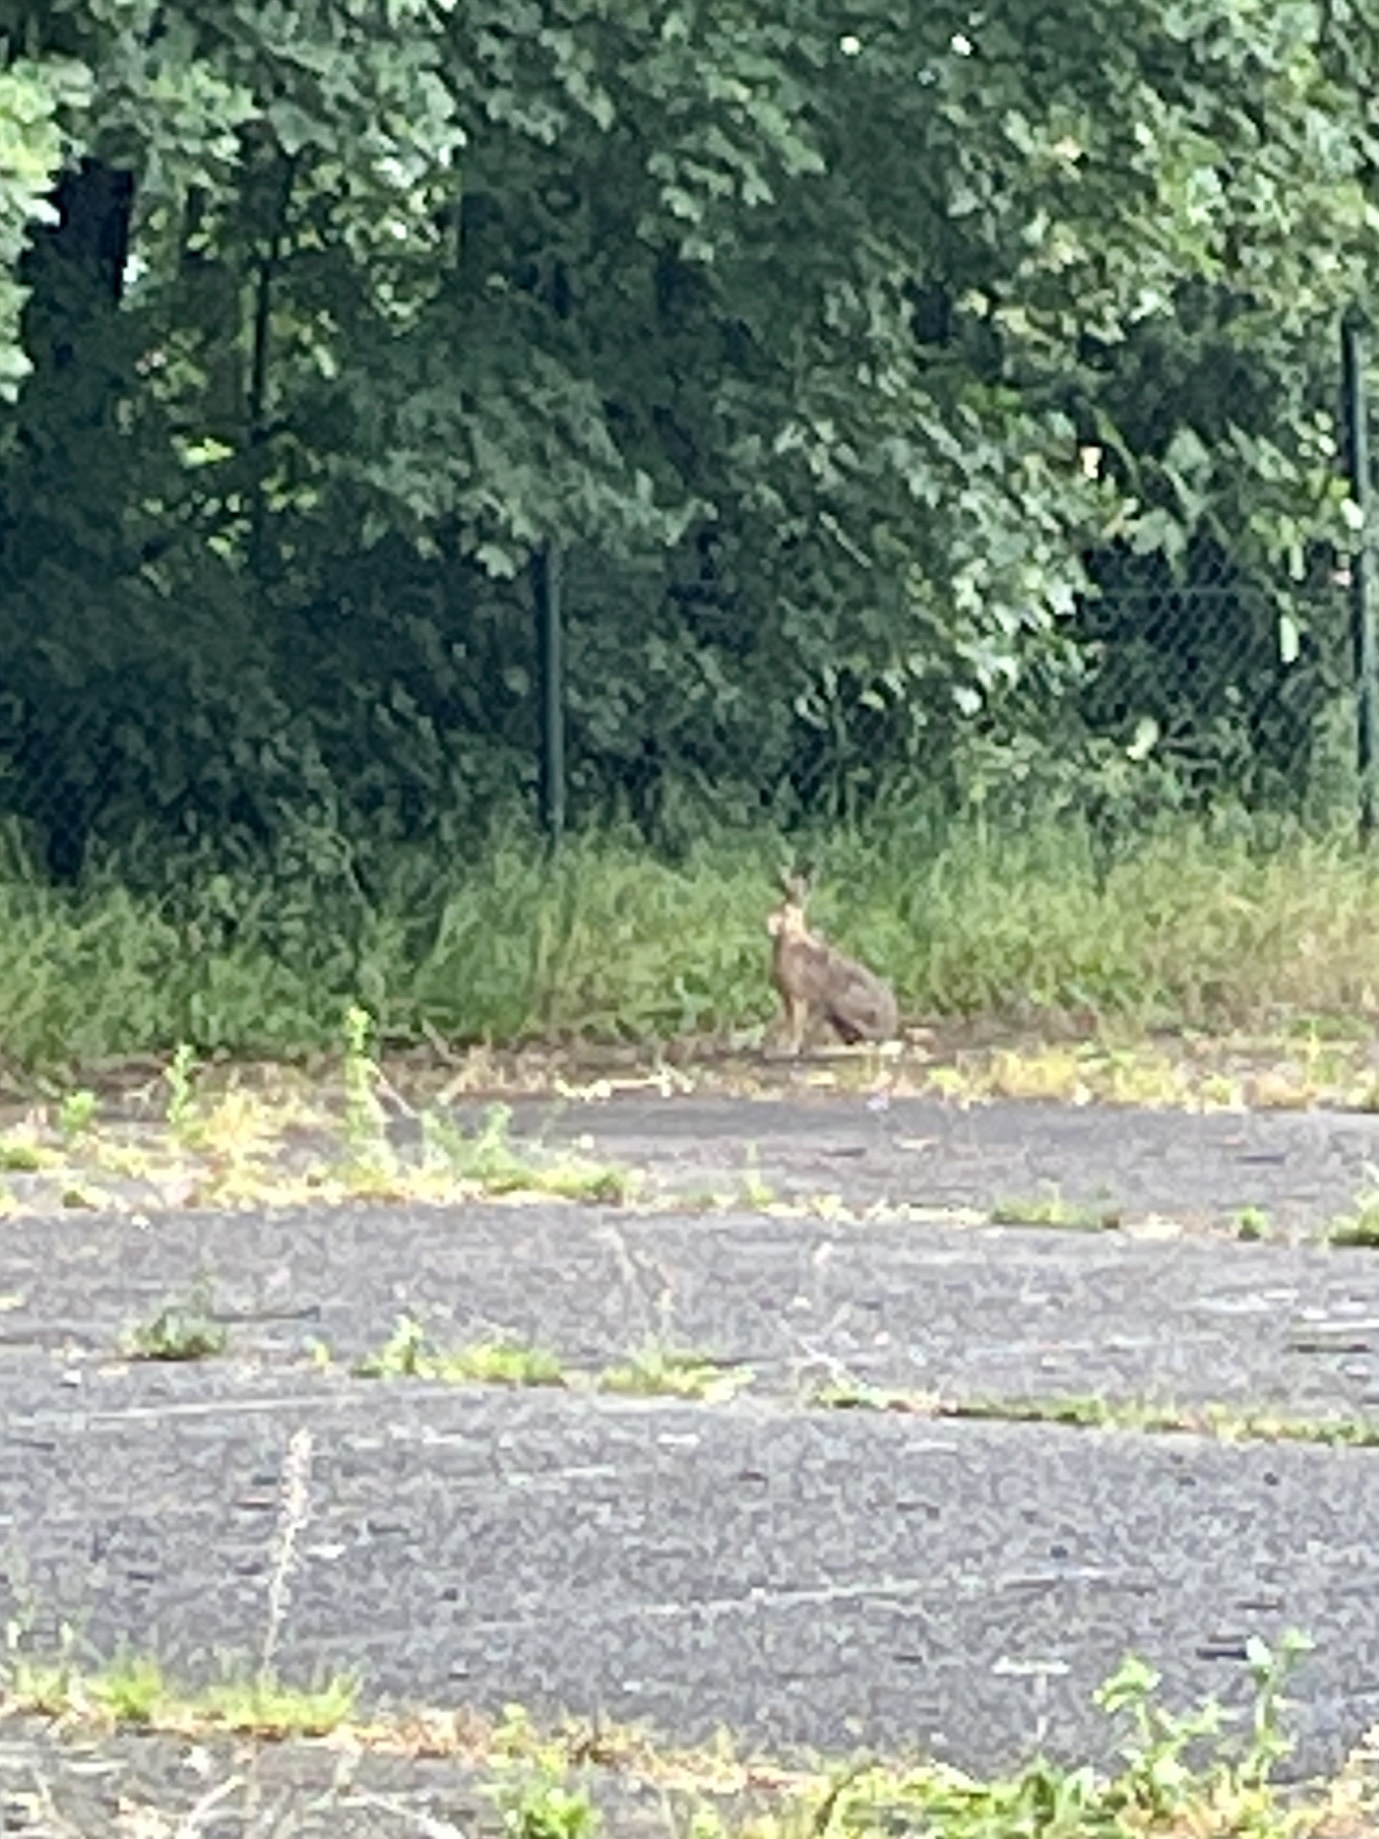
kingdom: Animalia
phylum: Chordata
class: Mammalia
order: Lagomorpha
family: Leporidae
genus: Lepus
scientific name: Lepus europaeus
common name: European hare
